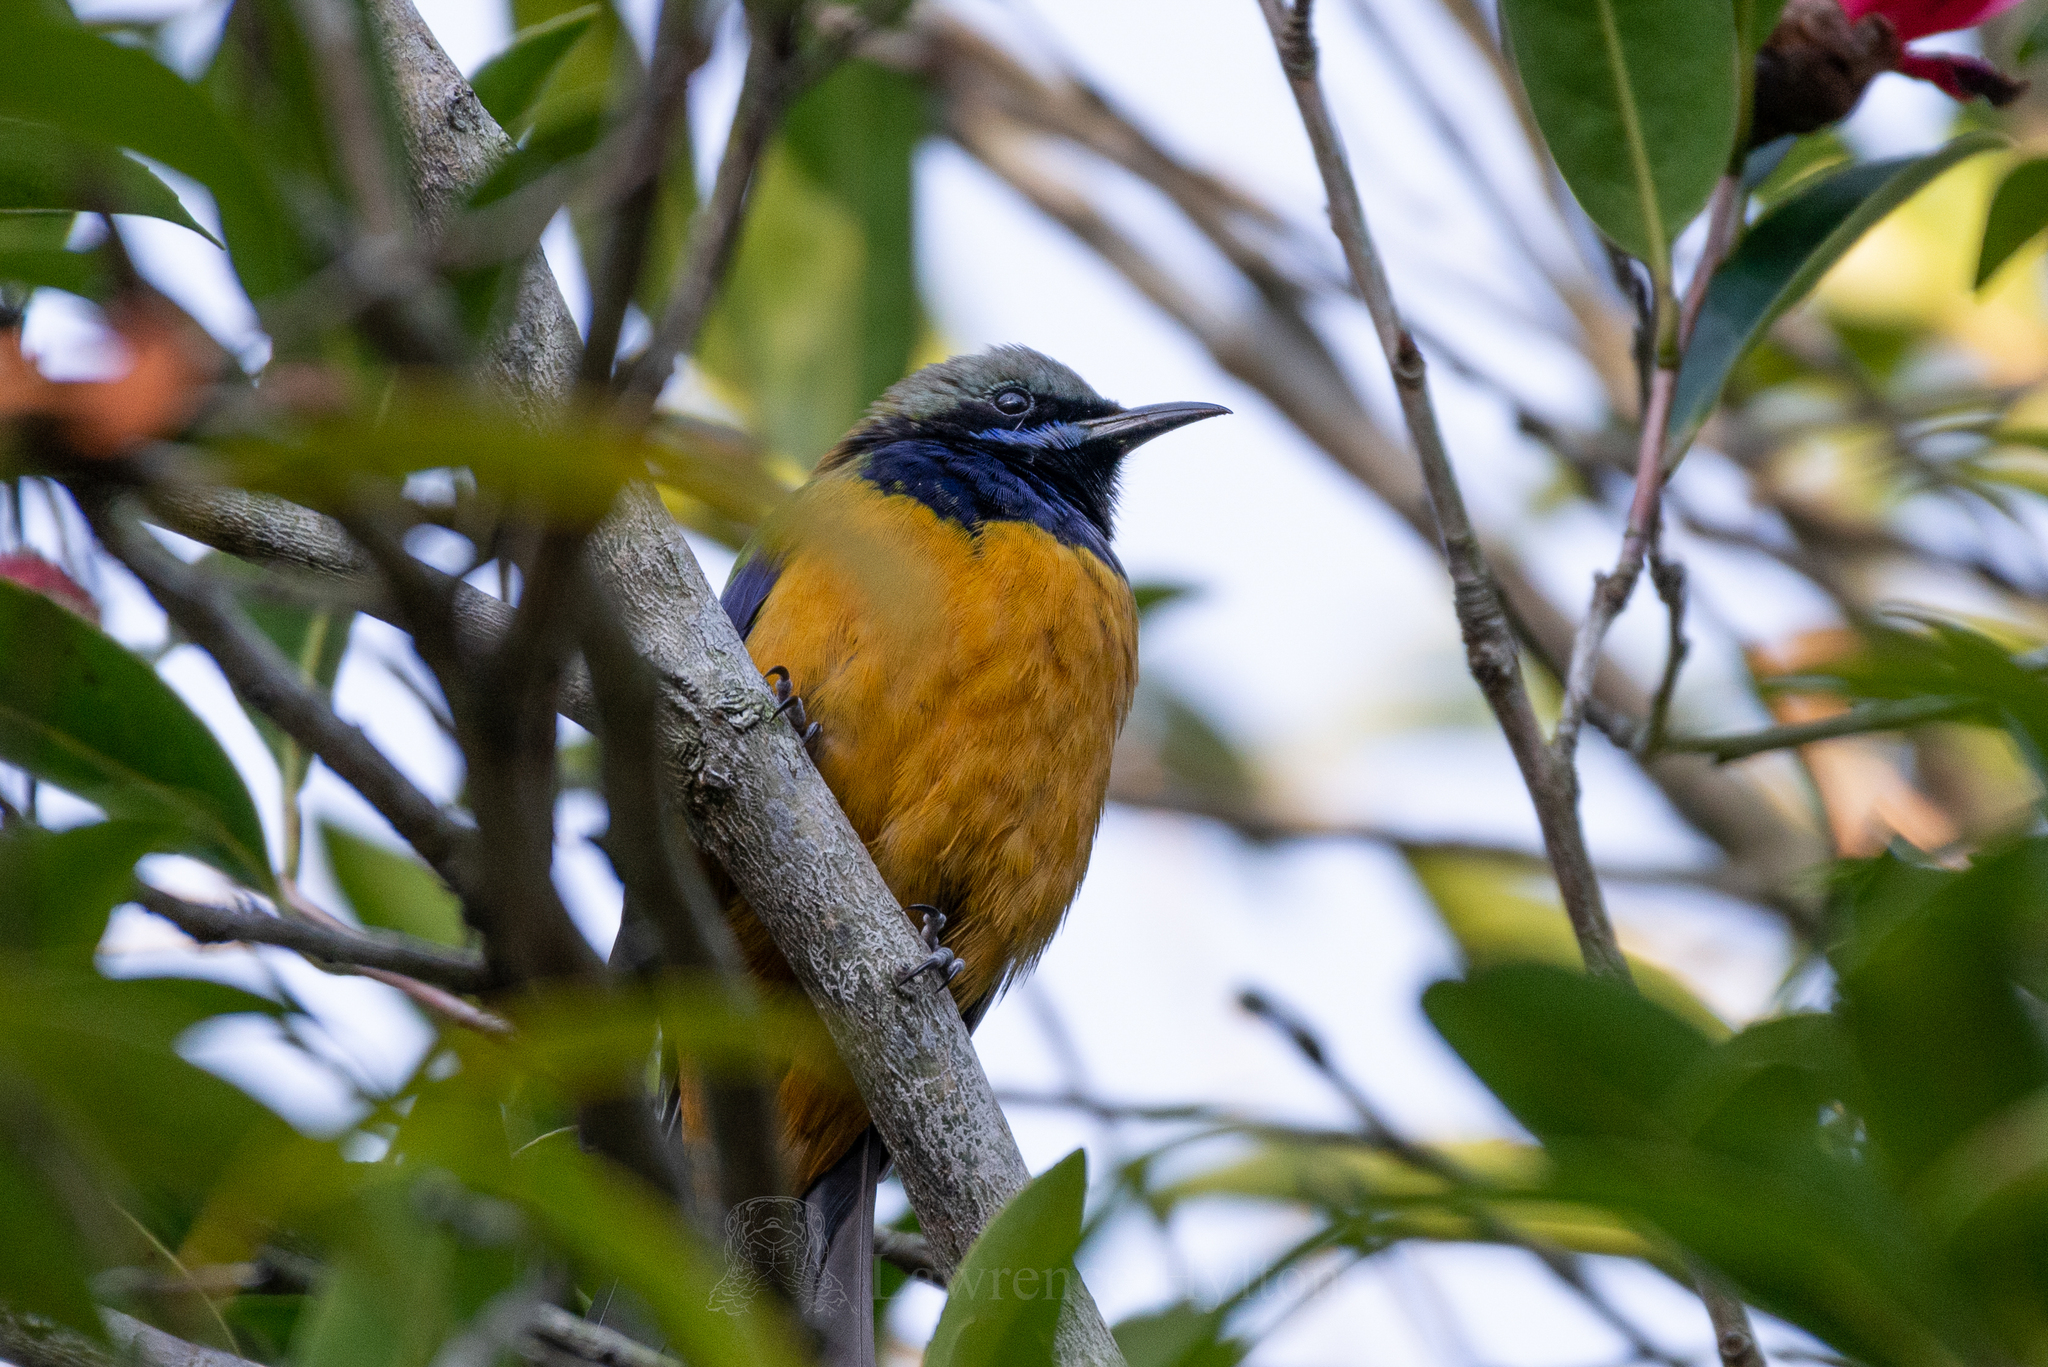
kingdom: Animalia
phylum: Chordata
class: Aves
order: Passeriformes
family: Chloropseidae
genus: Chloropsis
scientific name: Chloropsis hardwickii
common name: Orange-bellied leafbird
